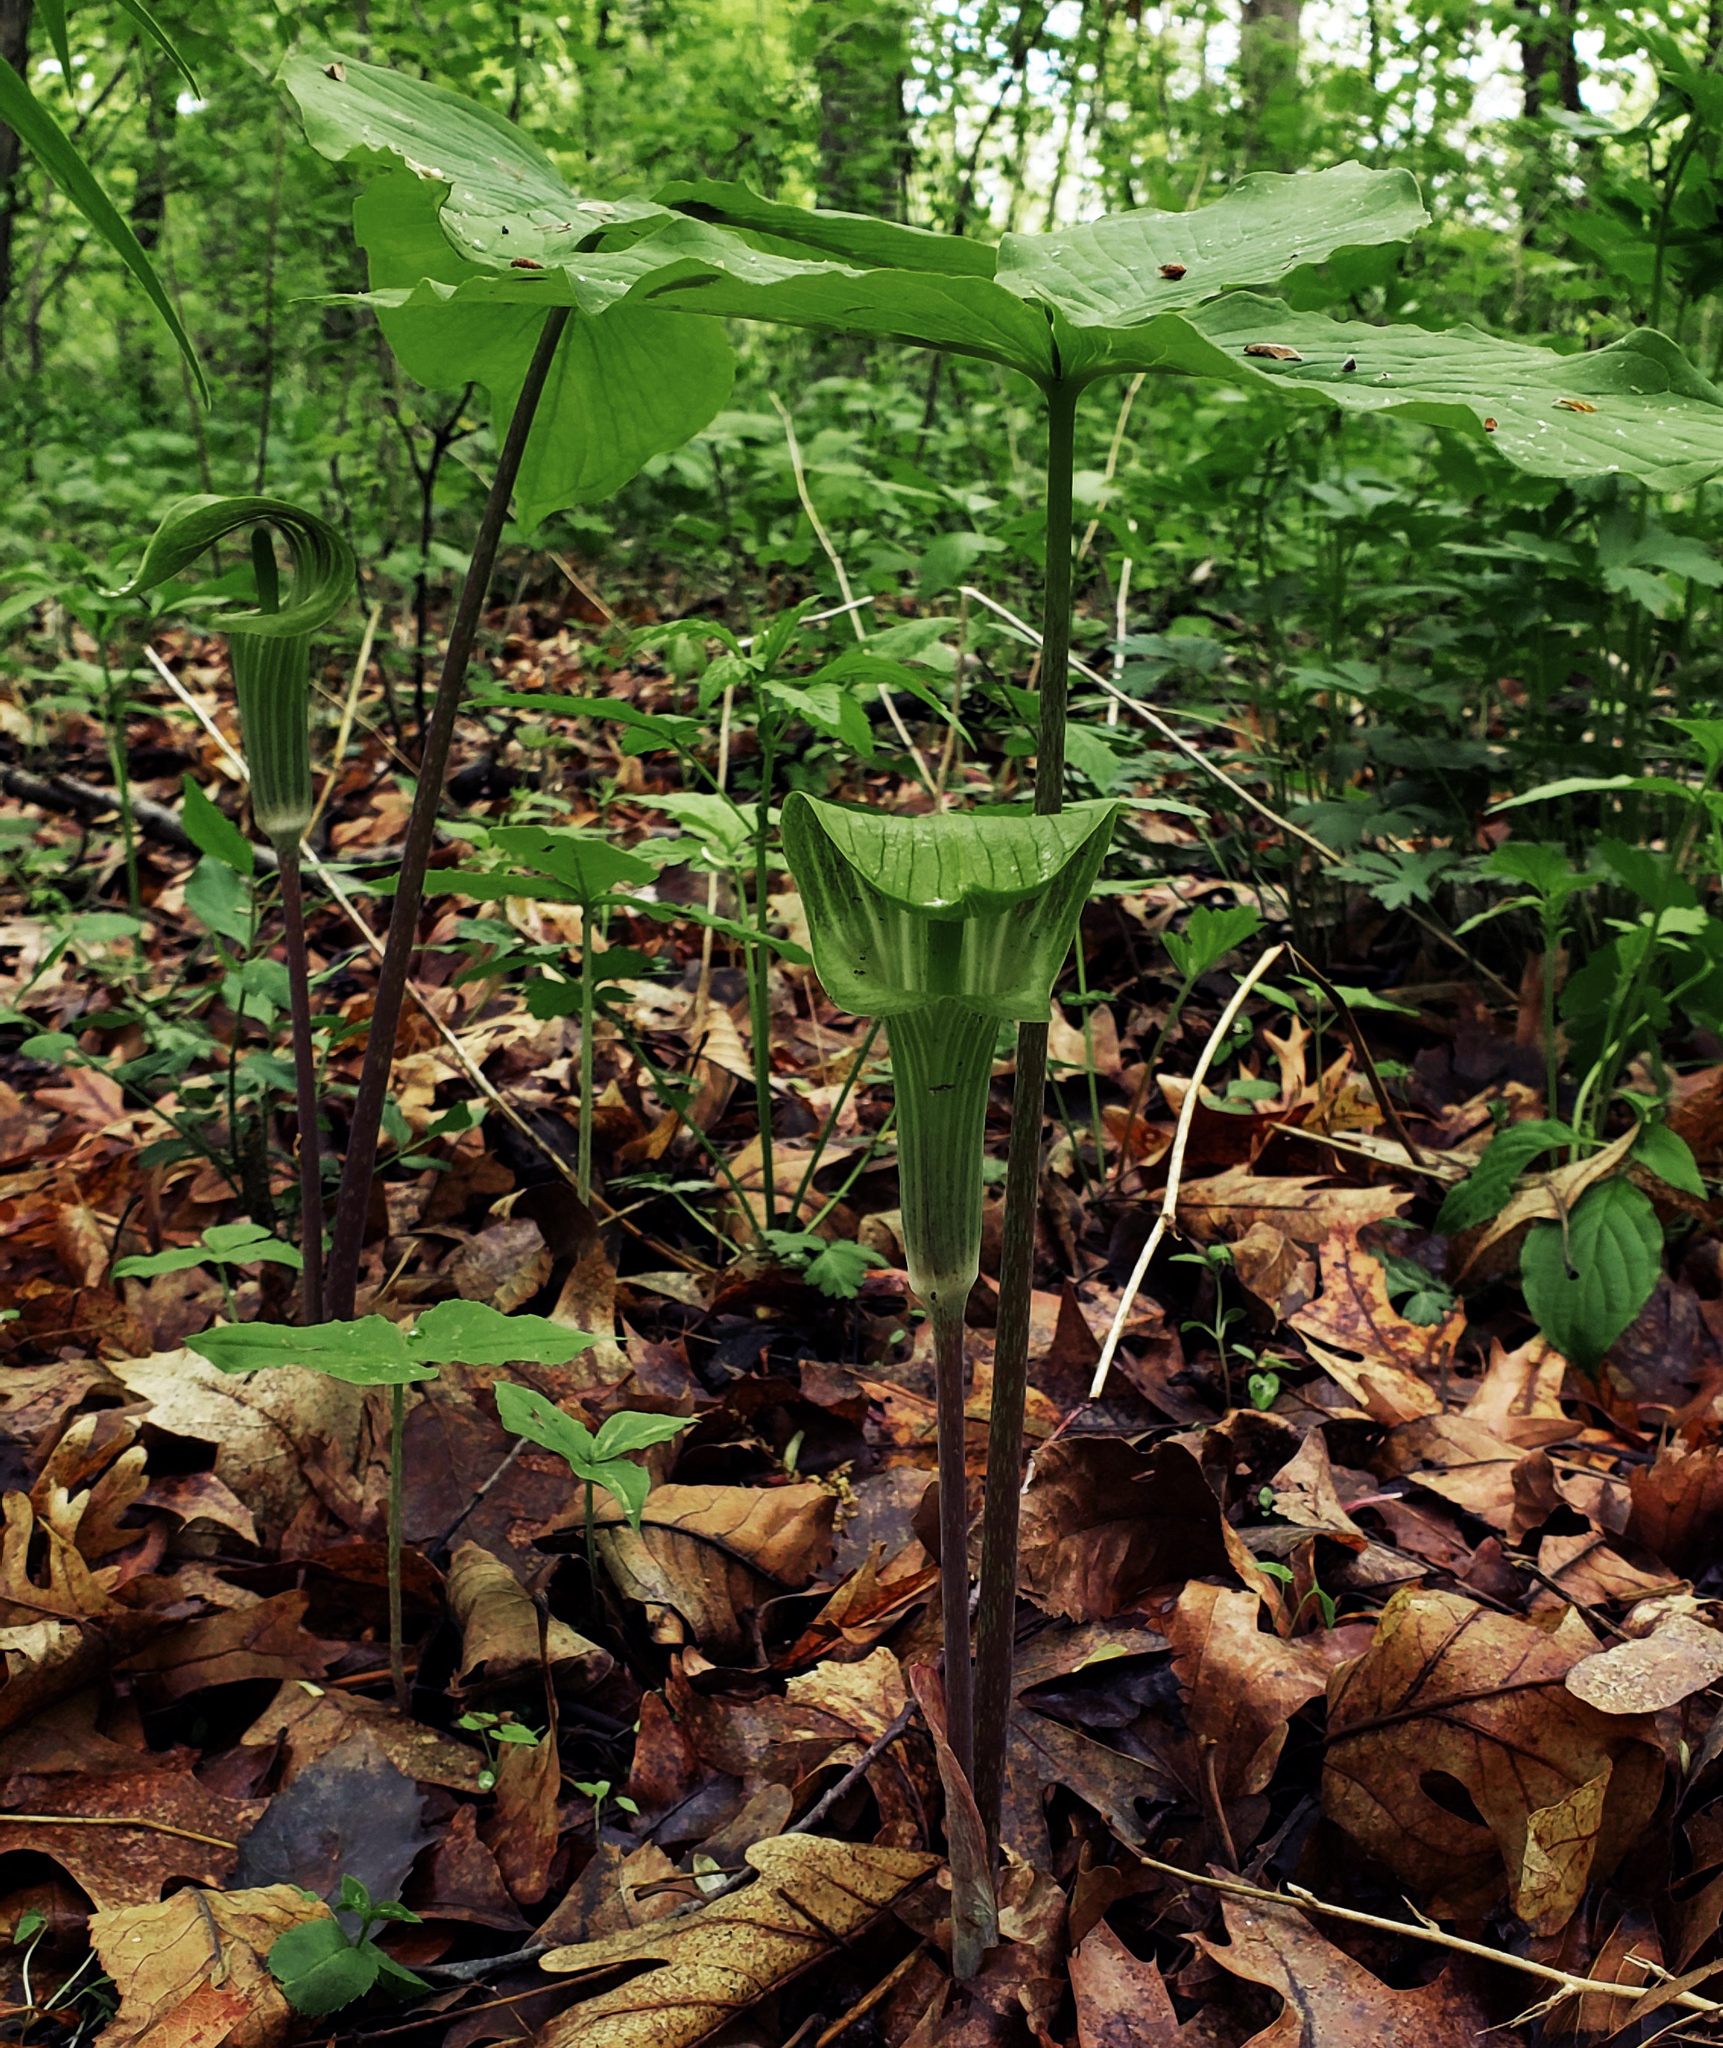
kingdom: Plantae
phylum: Tracheophyta
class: Liliopsida
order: Alismatales
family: Araceae
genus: Arisaema
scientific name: Arisaema triphyllum
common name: Jack-in-the-pulpit
